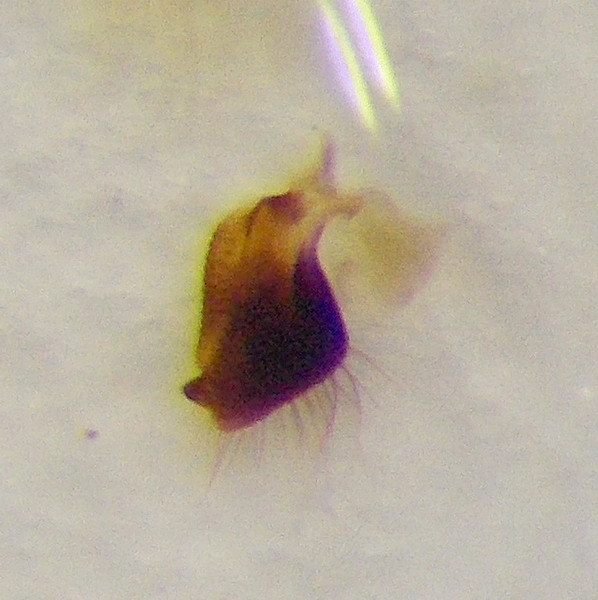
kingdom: Animalia
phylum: Arthropoda
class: Insecta
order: Hemiptera
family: Cydnidae
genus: Byrsinus
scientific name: Byrsinus rugosus
